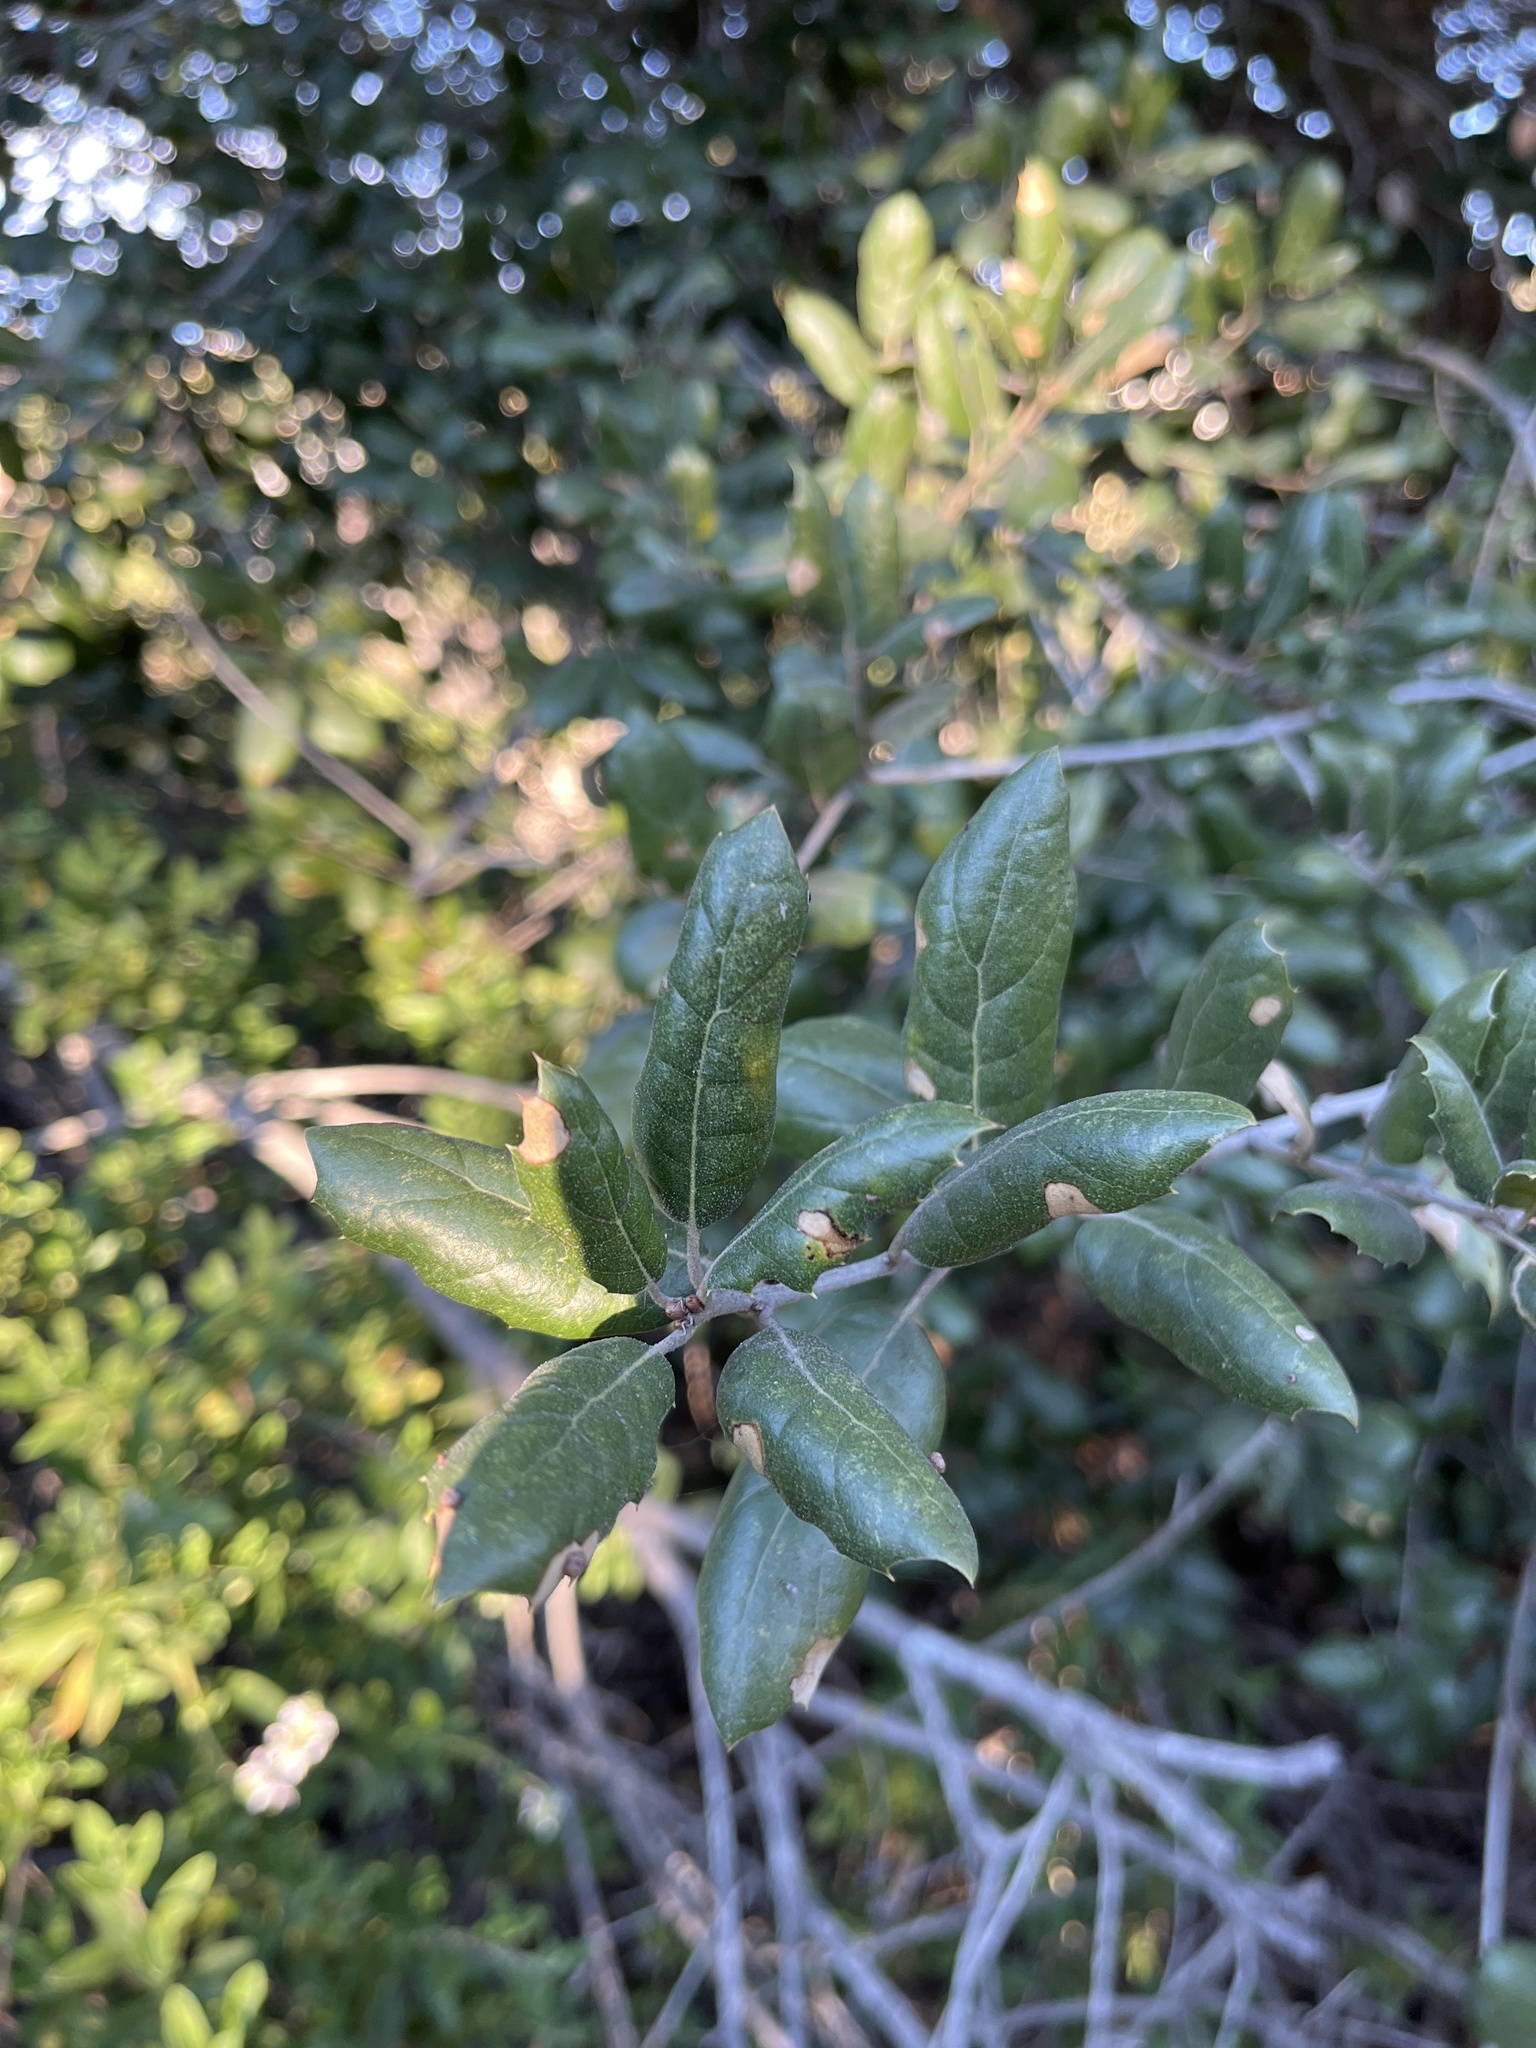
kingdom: Plantae
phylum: Tracheophyta
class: Magnoliopsida
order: Fagales
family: Fagaceae
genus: Quercus
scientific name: Quercus agrifolia
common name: California live oak
